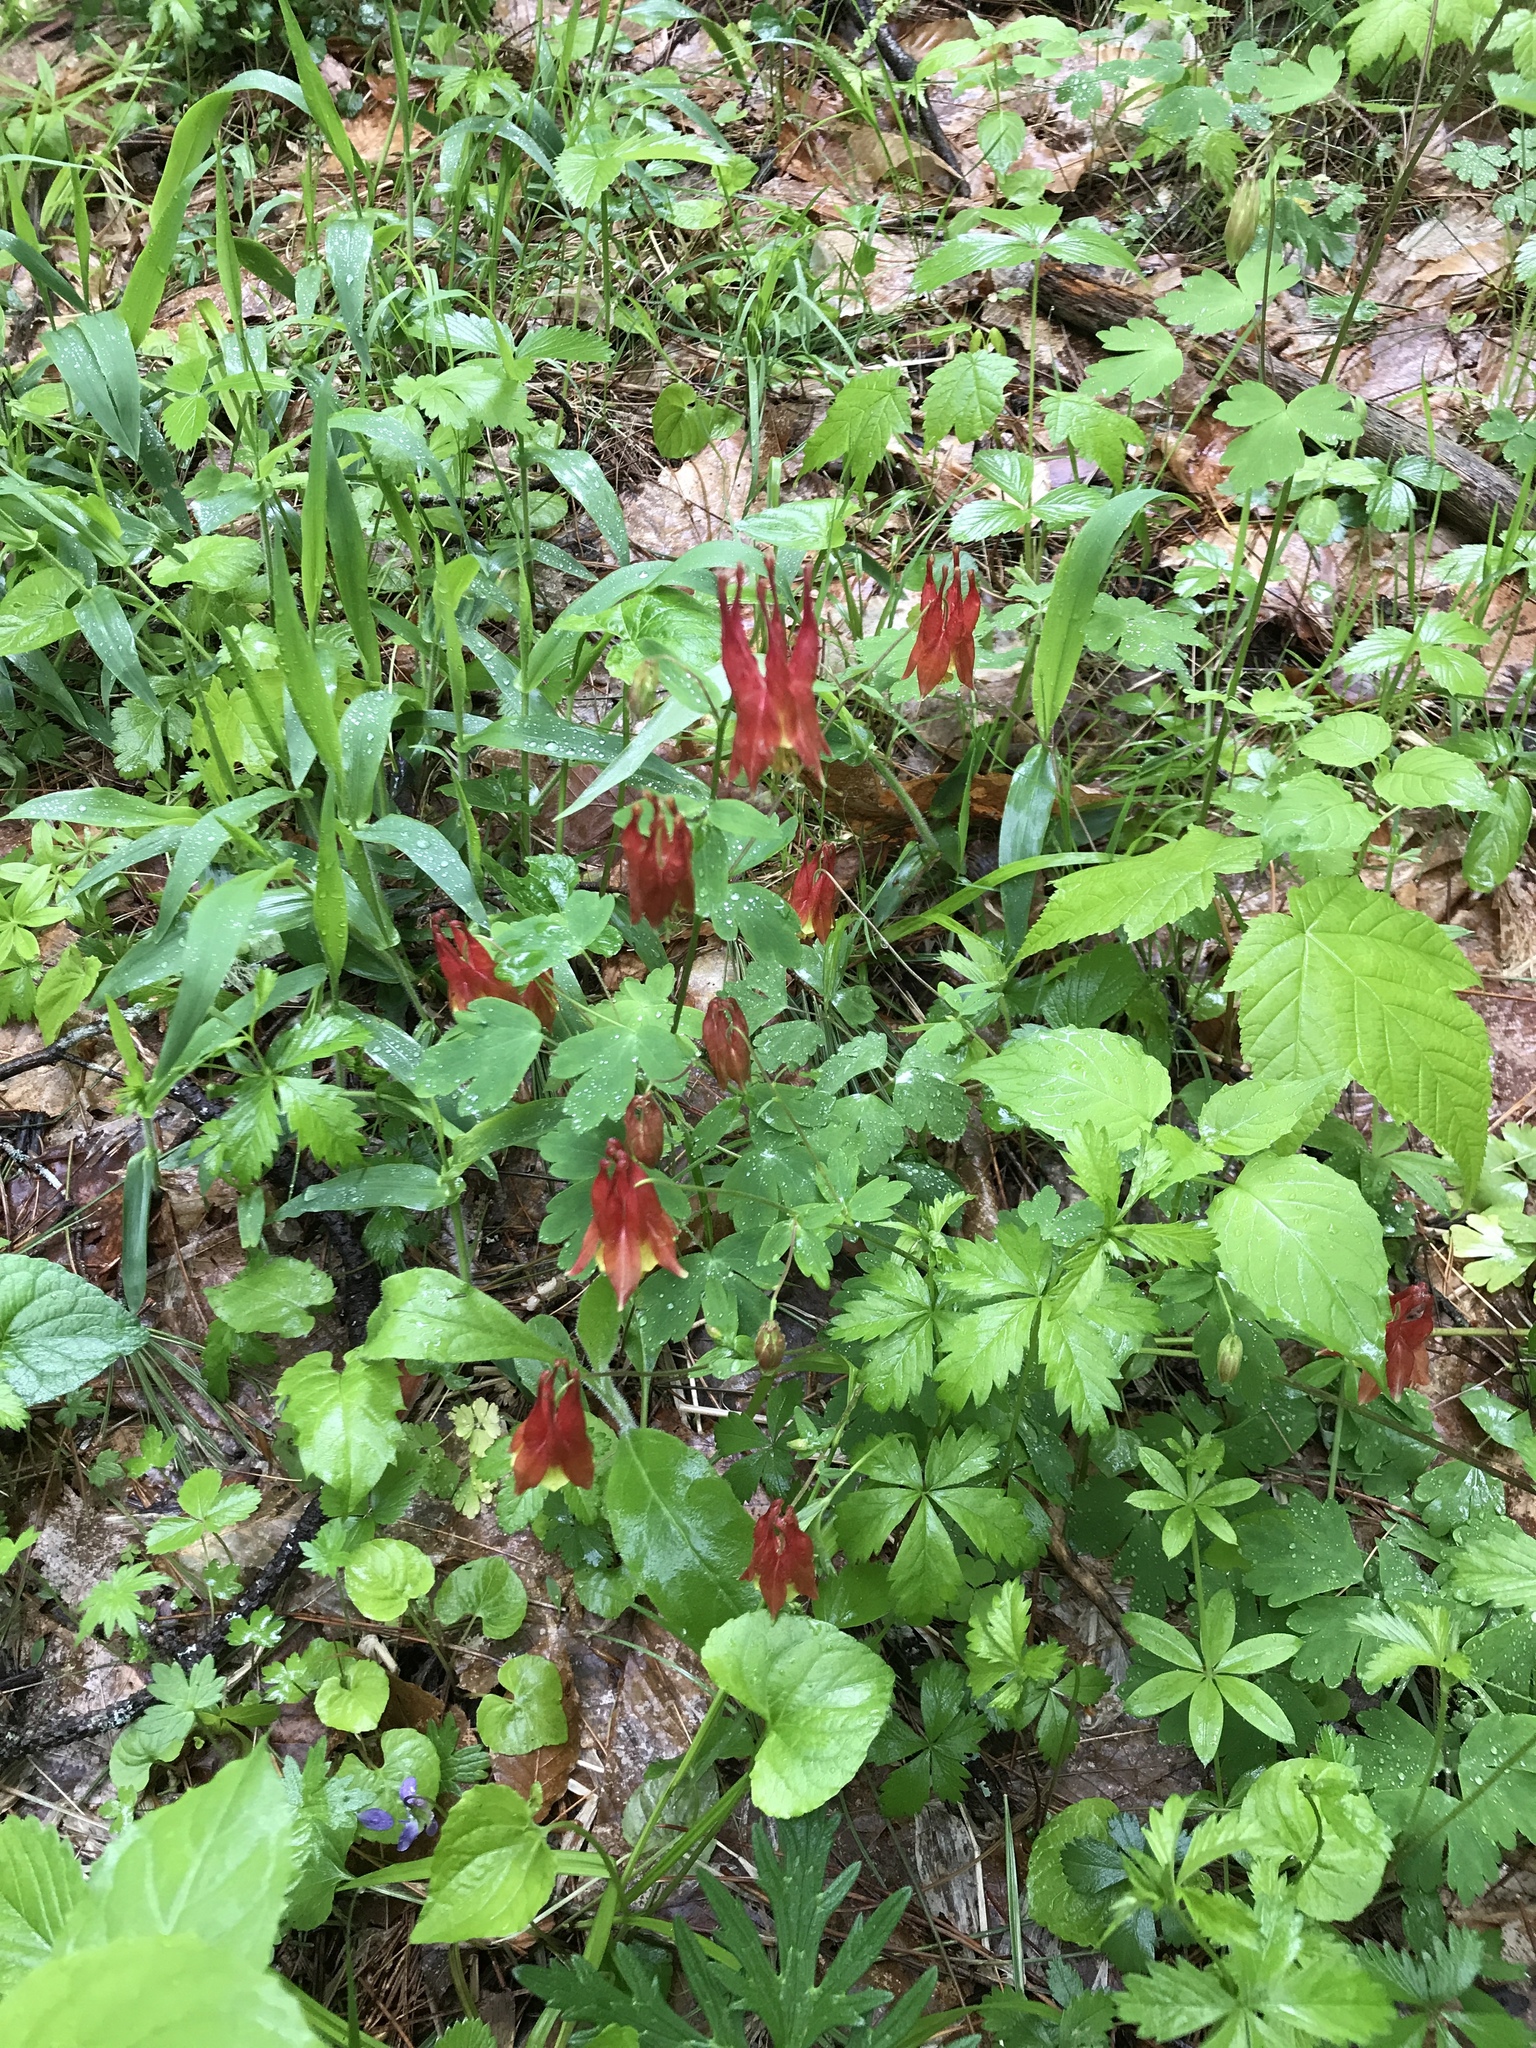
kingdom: Plantae
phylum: Tracheophyta
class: Magnoliopsida
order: Ranunculales
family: Ranunculaceae
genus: Aquilegia
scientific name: Aquilegia canadensis
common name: American columbine
